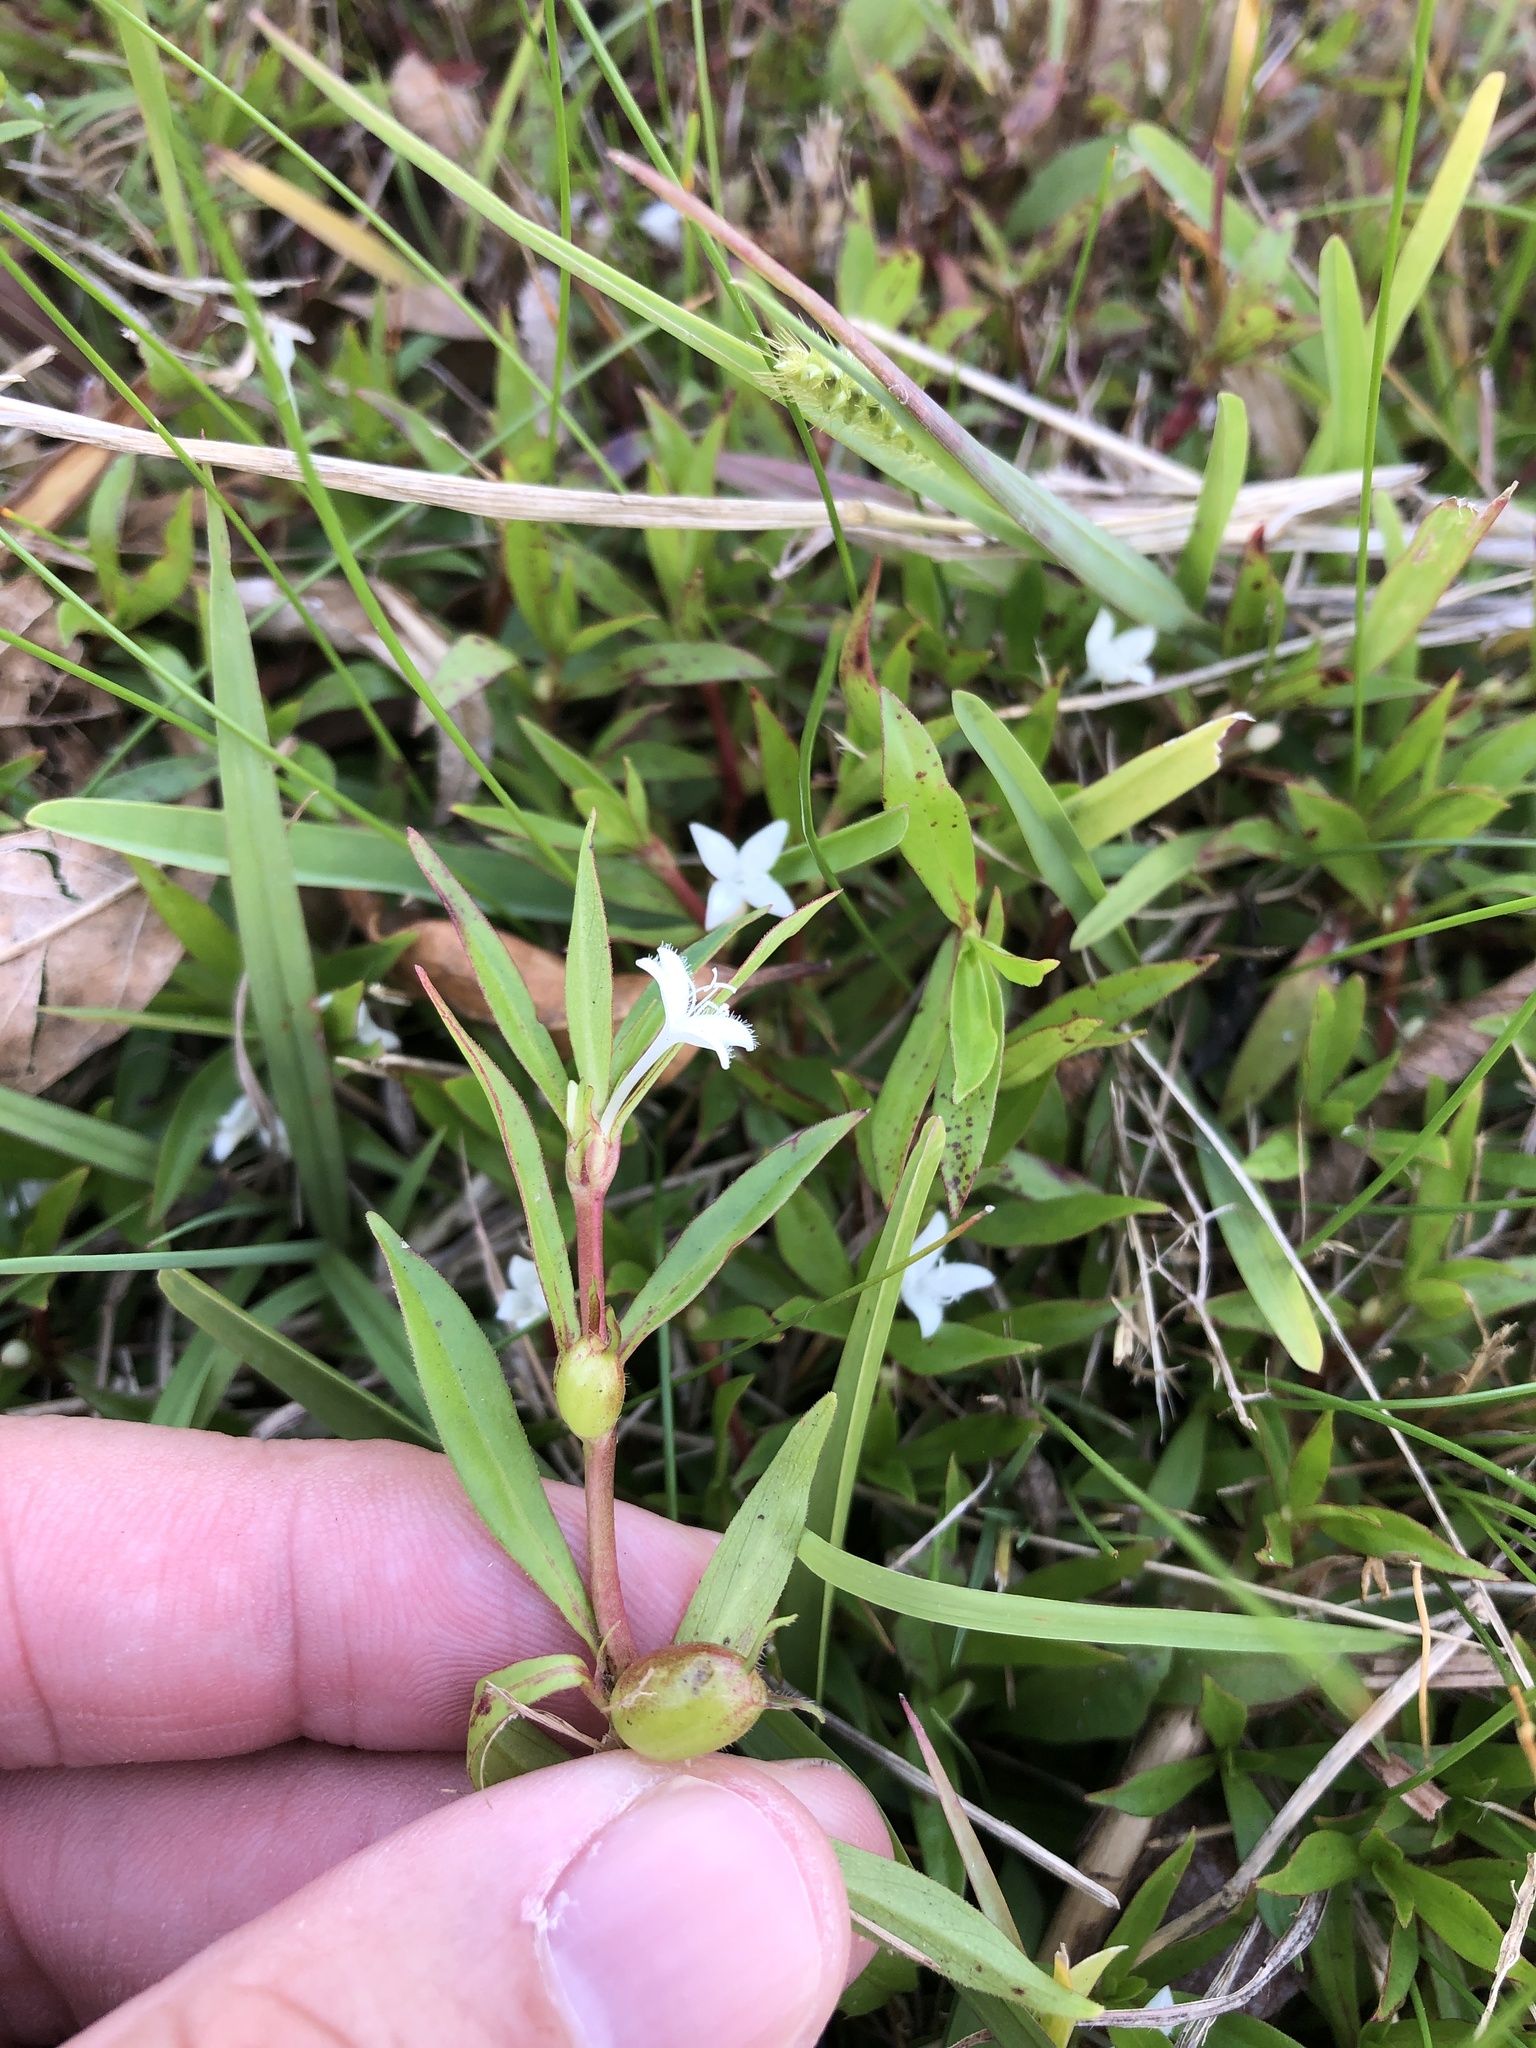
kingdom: Plantae
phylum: Tracheophyta
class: Magnoliopsida
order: Gentianales
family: Rubiaceae
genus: Diodia
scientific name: Diodia virginiana
